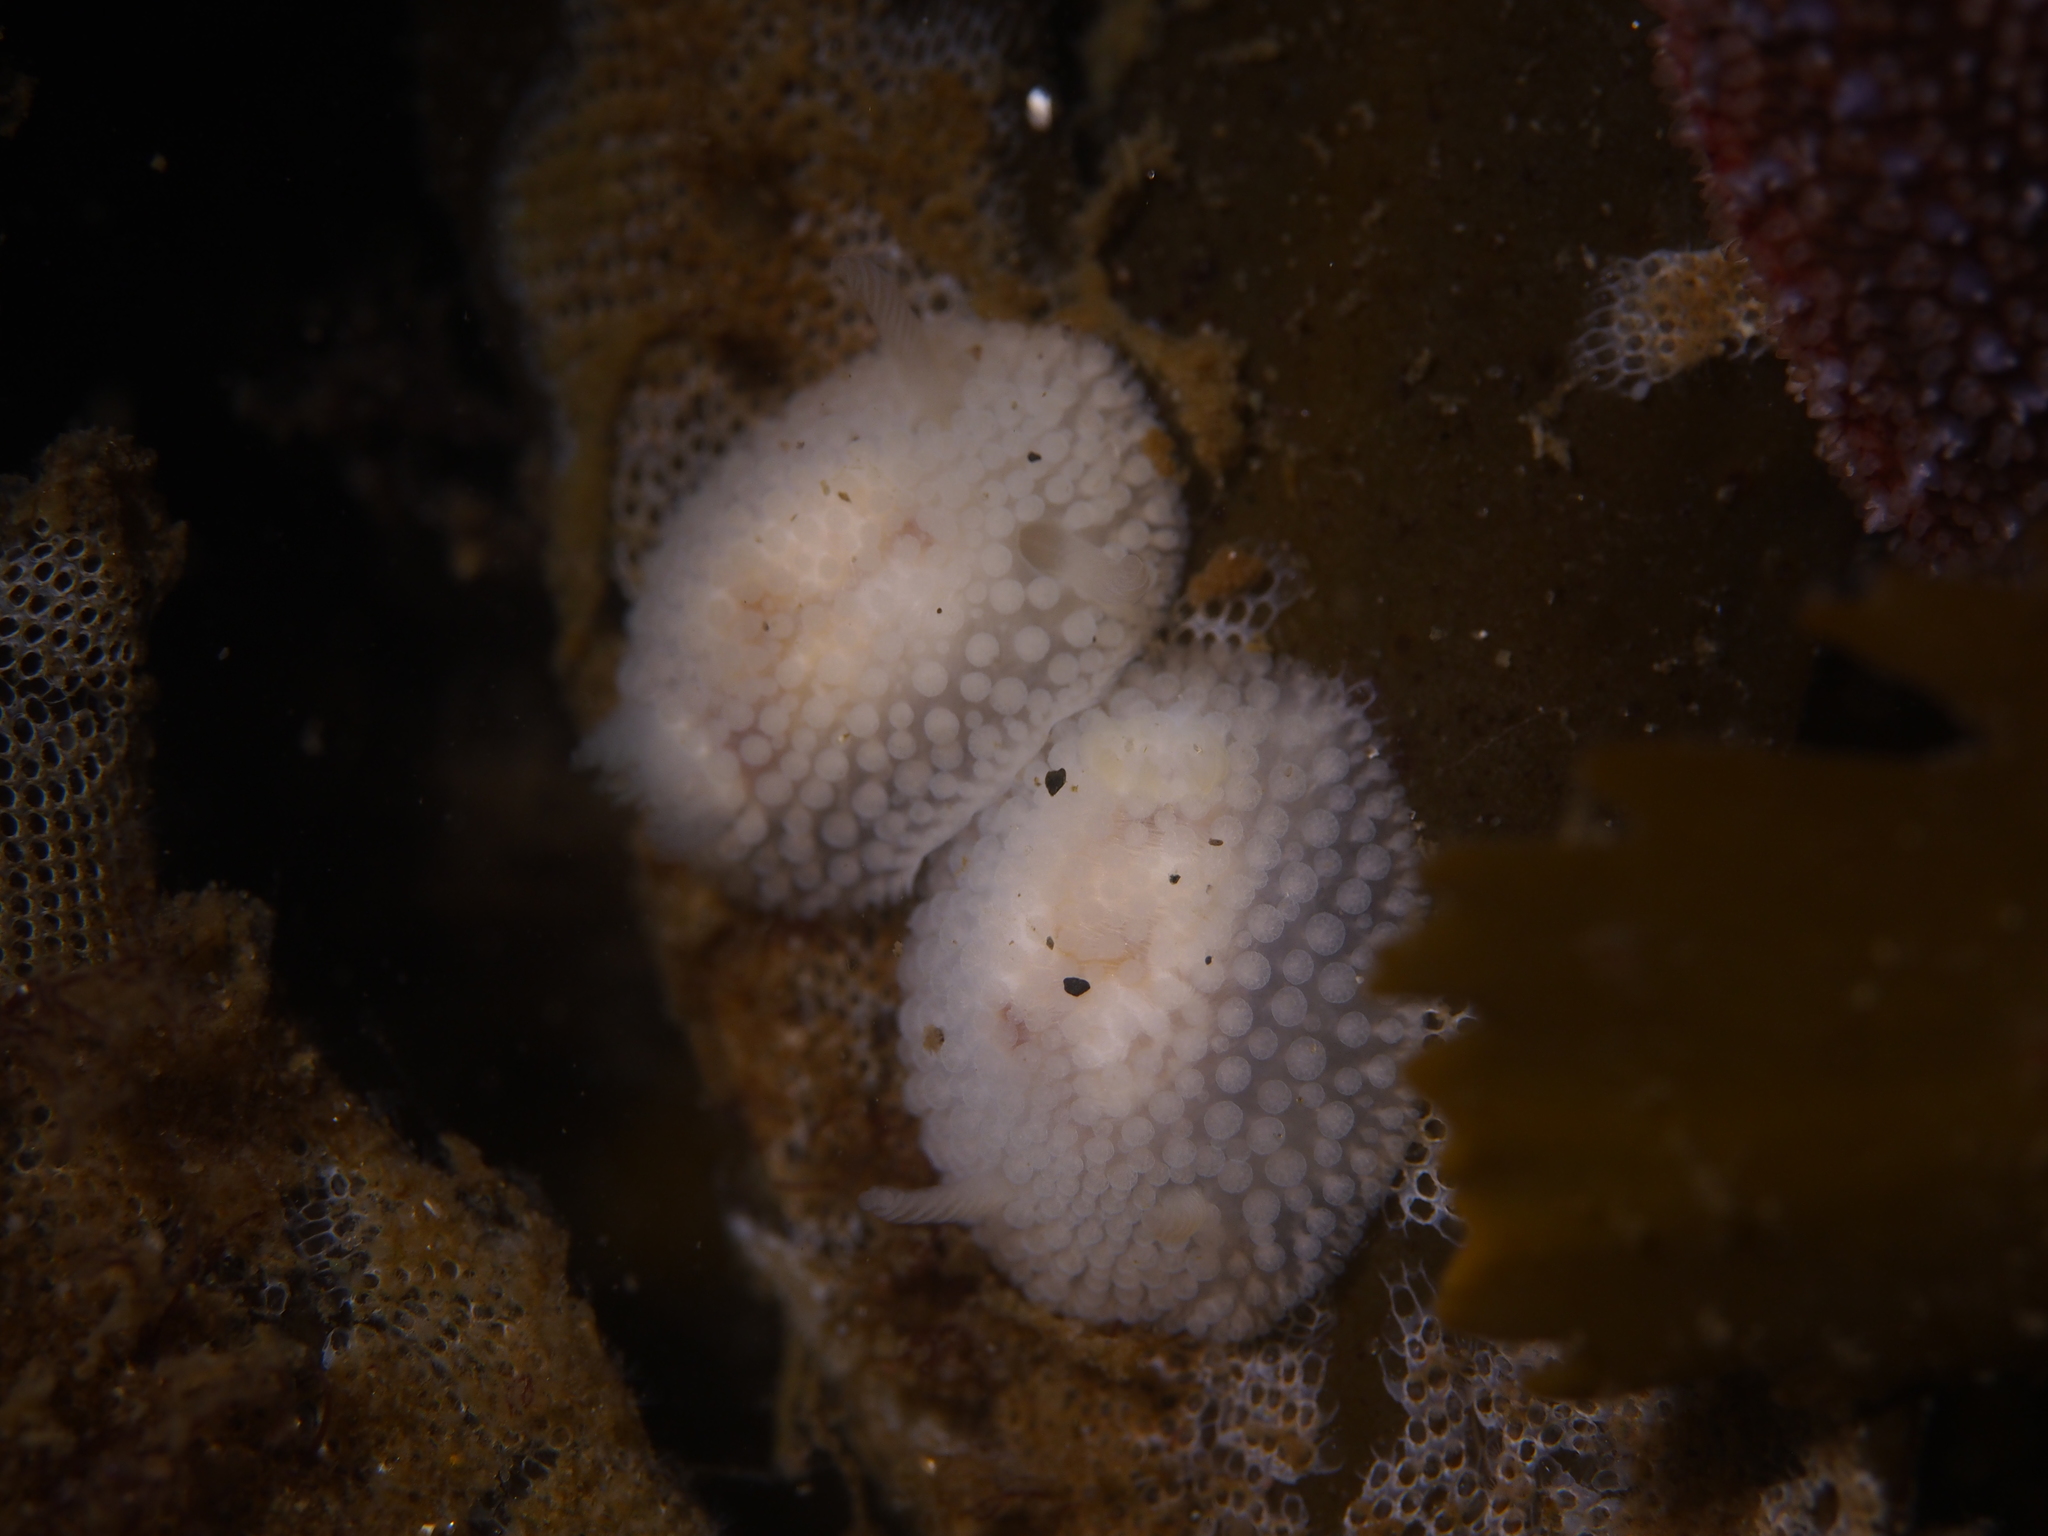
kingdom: Animalia
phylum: Mollusca
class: Gastropoda
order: Nudibranchia
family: Onchidorididae
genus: Onchidoris
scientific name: Onchidoris muricata
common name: Rough doris
